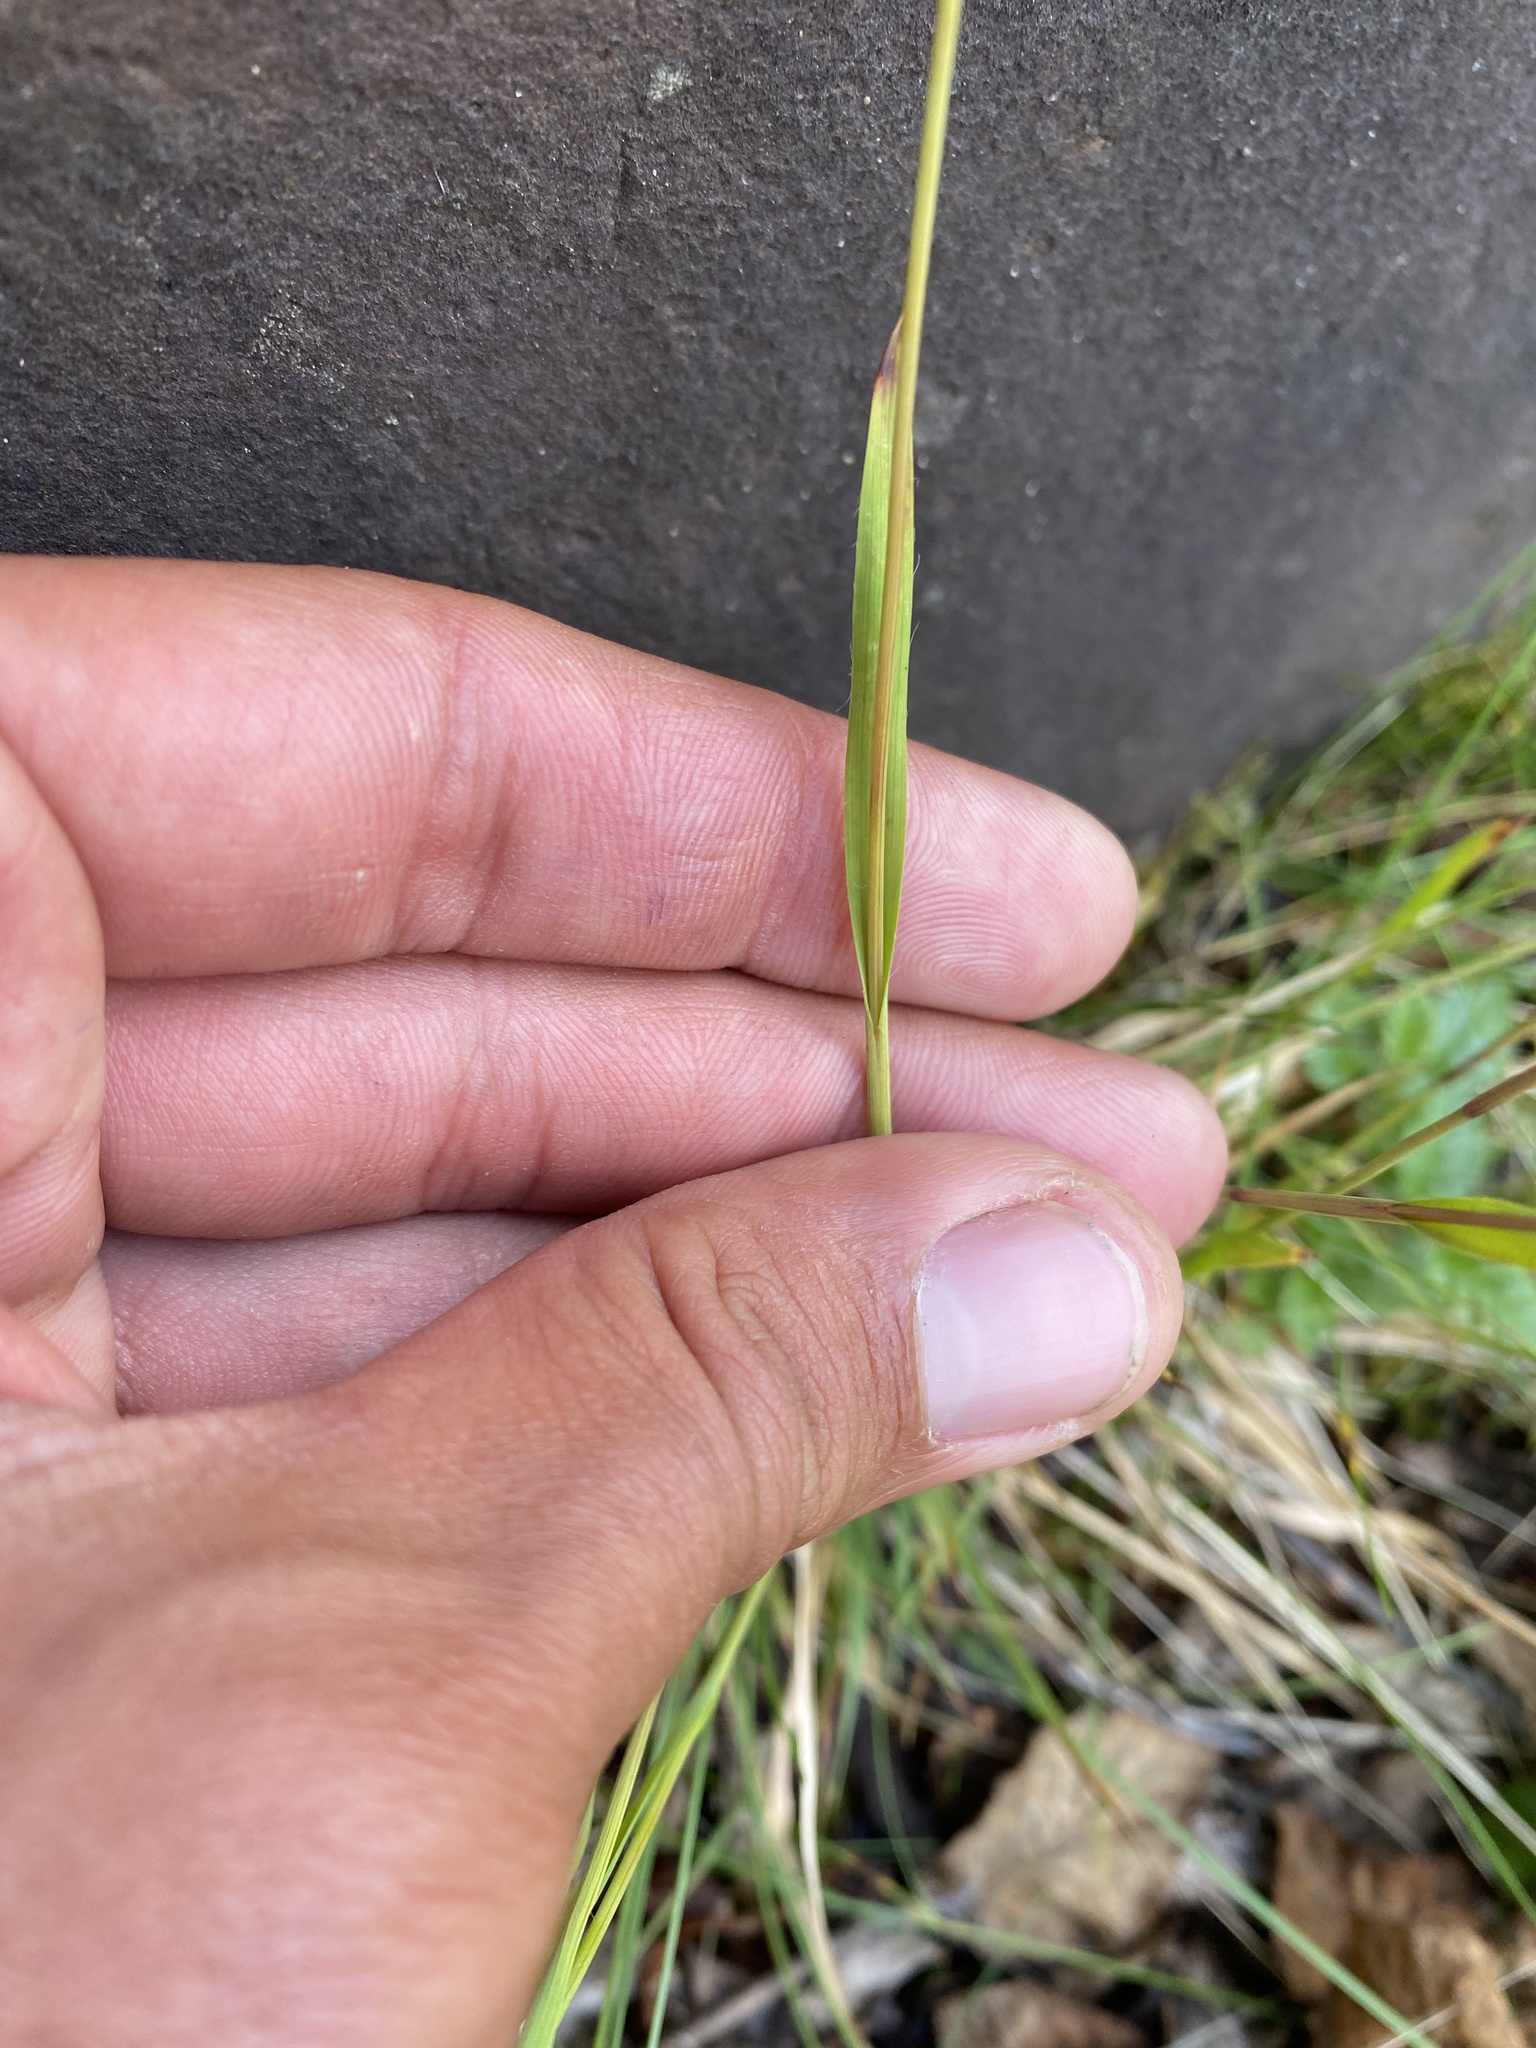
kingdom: Plantae
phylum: Tracheophyta
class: Liliopsida
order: Poales
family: Juncaceae
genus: Luzula
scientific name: Luzula confusa
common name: Northern wood rush
